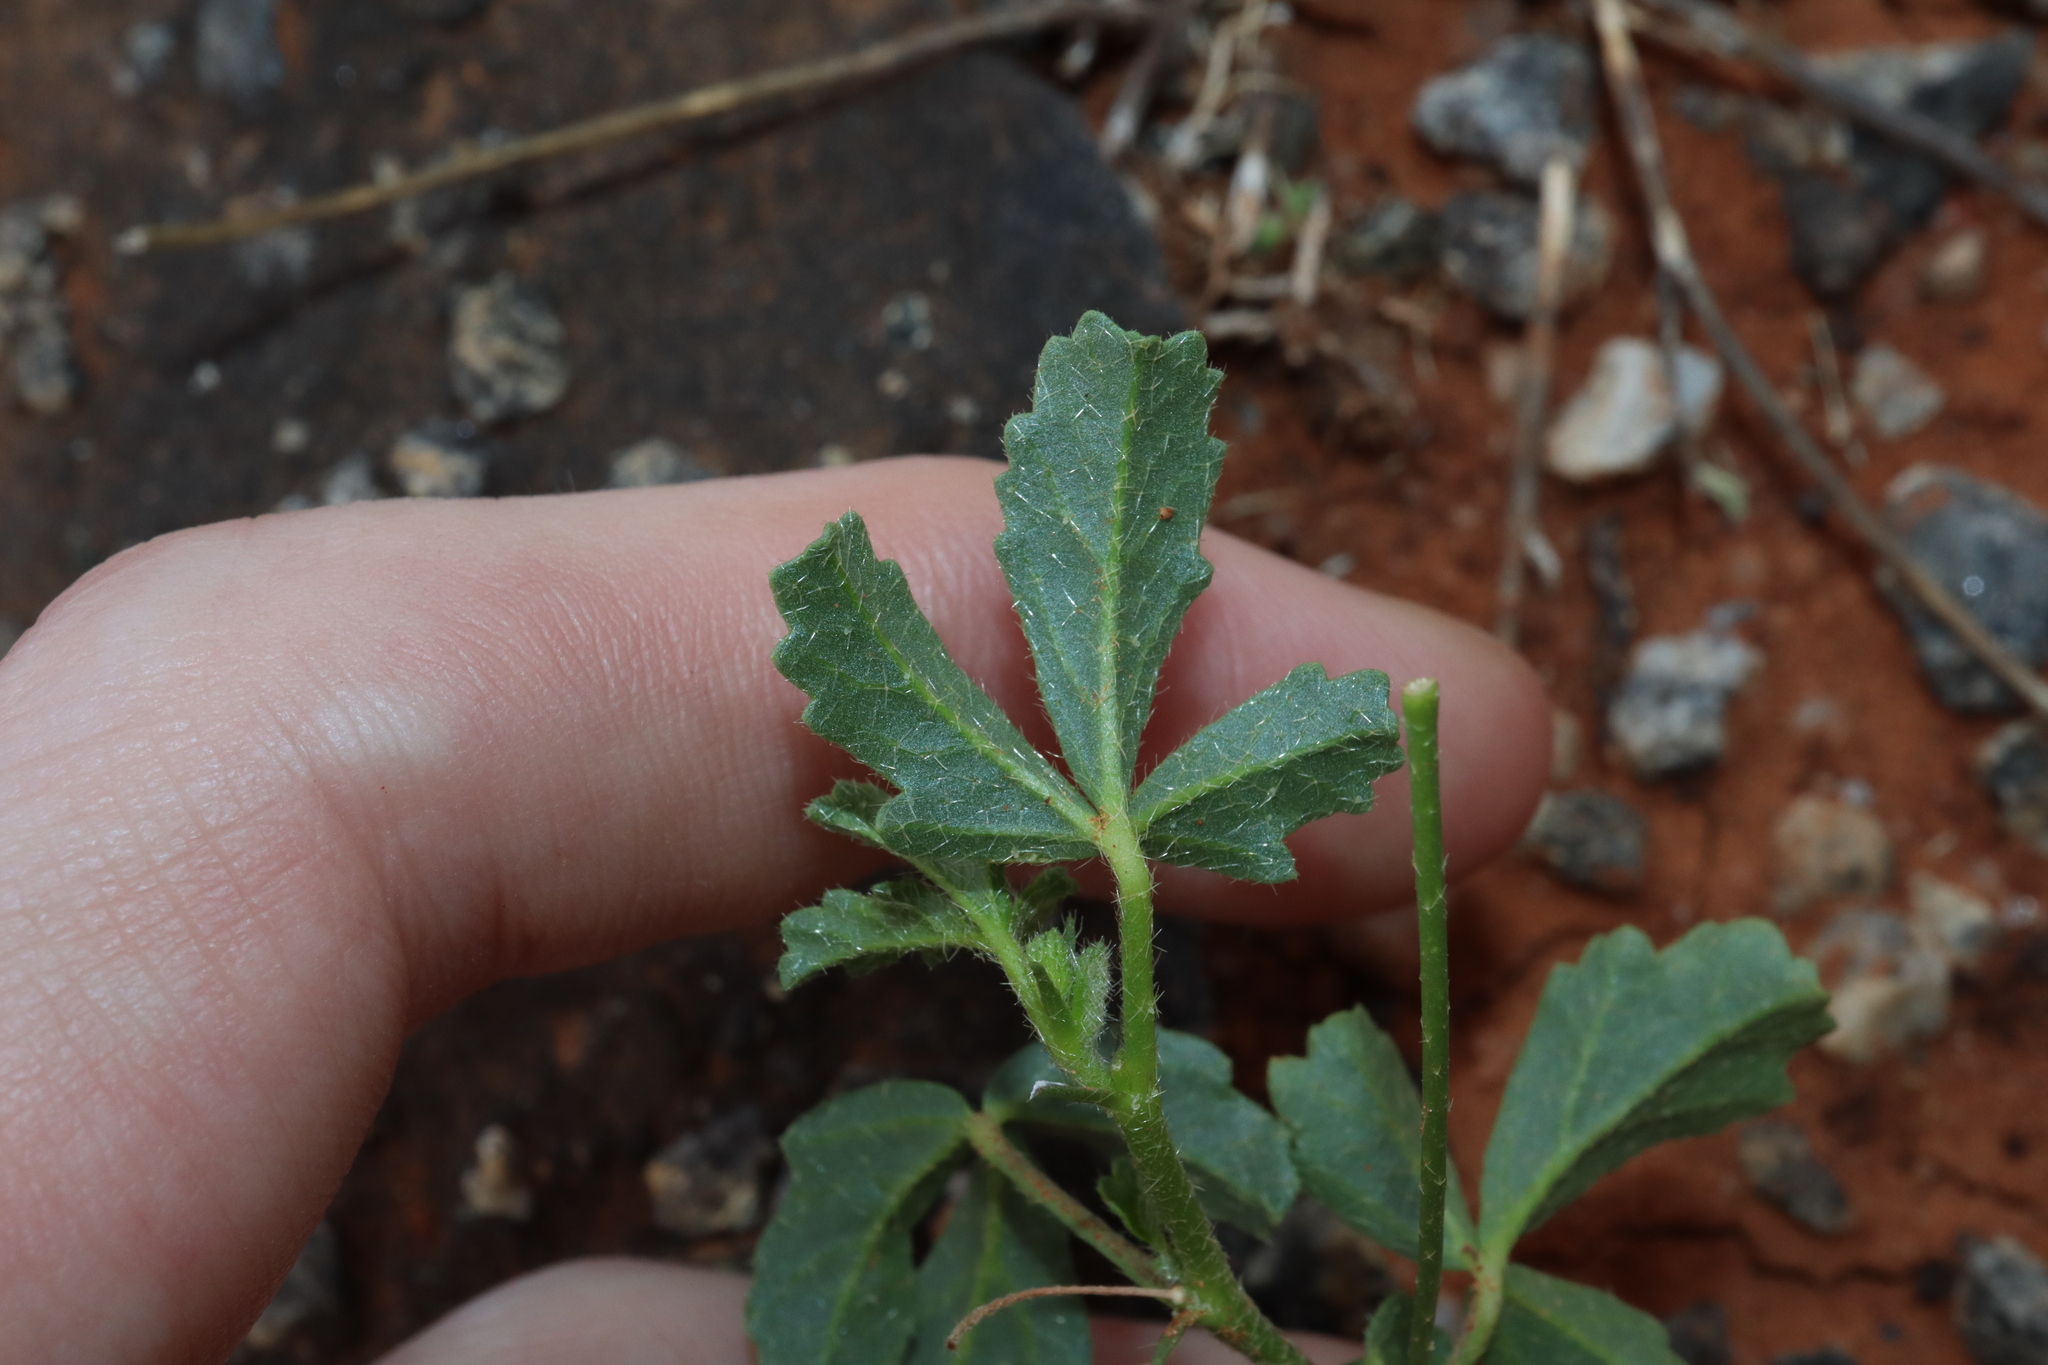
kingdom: Plantae
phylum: Tracheophyta
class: Magnoliopsida
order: Malvales
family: Malvaceae
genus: Hibiscus
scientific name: Hibiscus brachysiphonius
